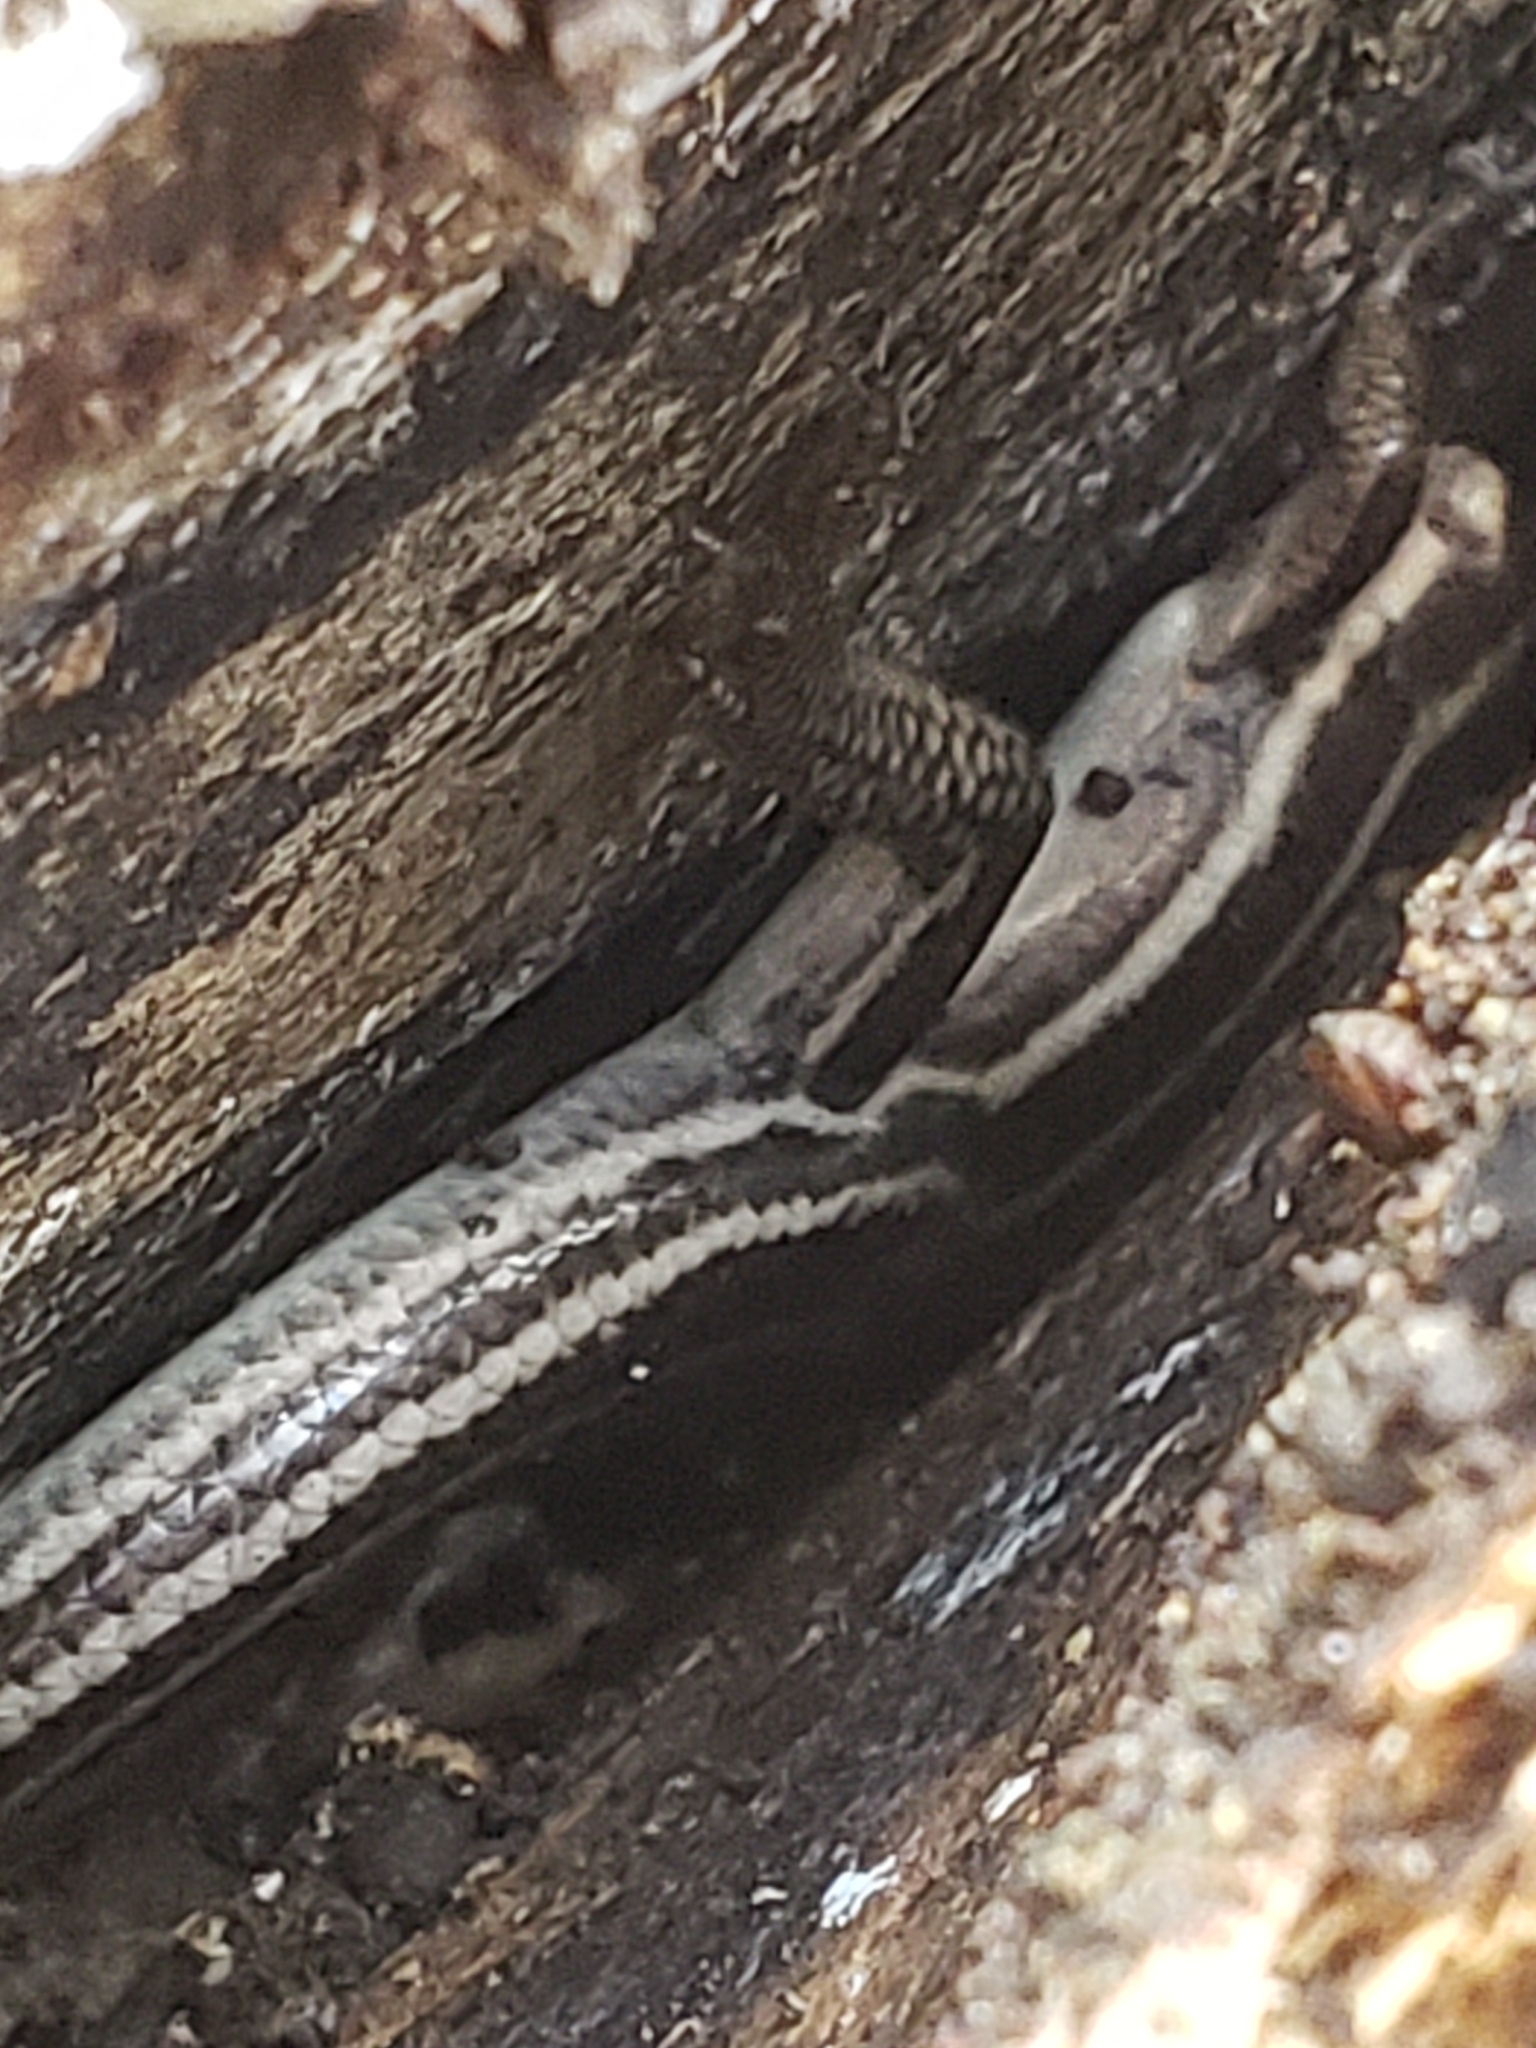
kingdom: Animalia
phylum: Chordata
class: Squamata
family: Scincidae
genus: Plestiodon
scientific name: Plestiodon fasciatus
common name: Five-lined skink
